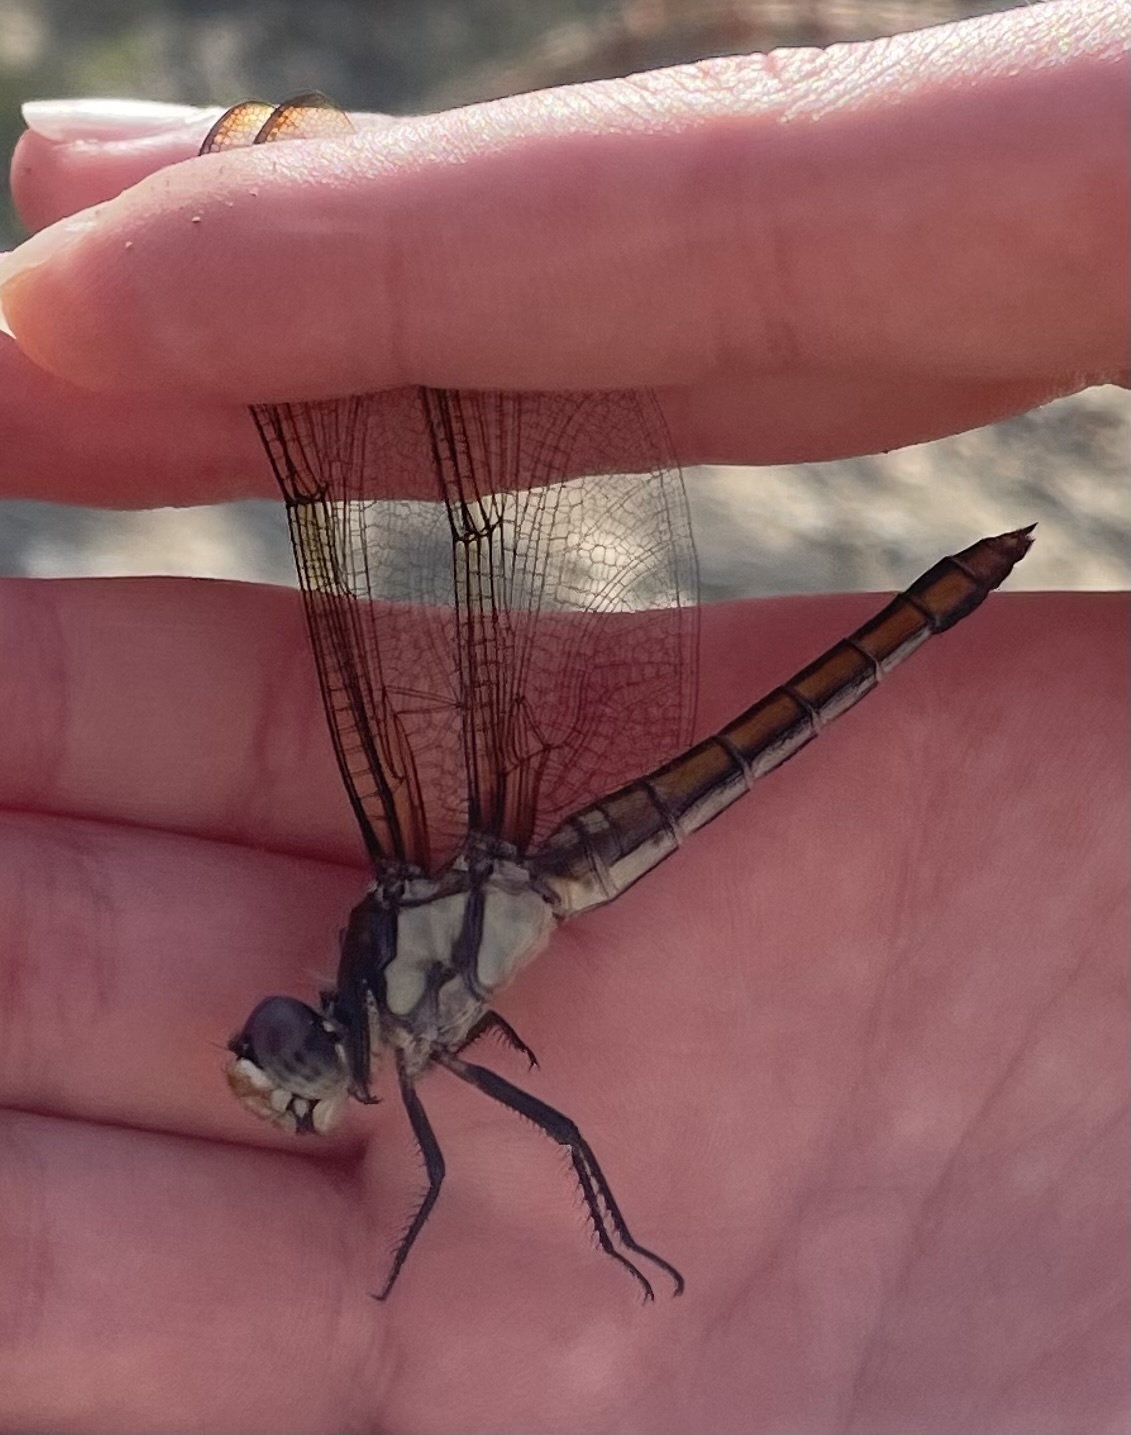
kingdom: Animalia
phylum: Arthropoda
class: Insecta
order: Odonata
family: Libellulidae
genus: Libellula
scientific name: Libellula comanche
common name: Comanche skimmer
